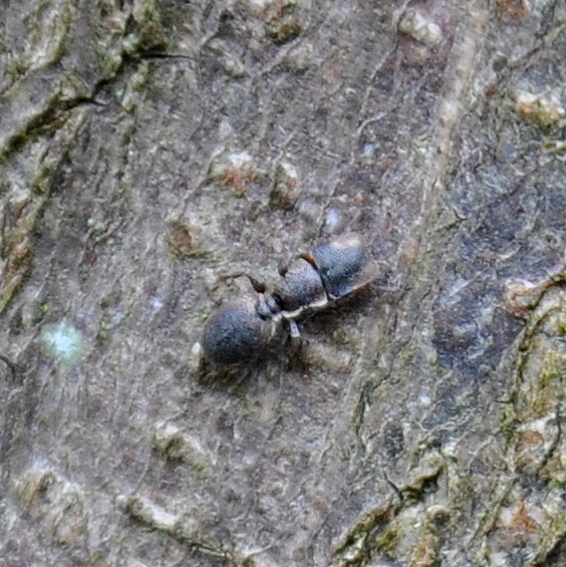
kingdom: Animalia
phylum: Arthropoda
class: Insecta
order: Hymenoptera
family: Formicidae
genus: Cephalotes
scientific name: Cephalotes
